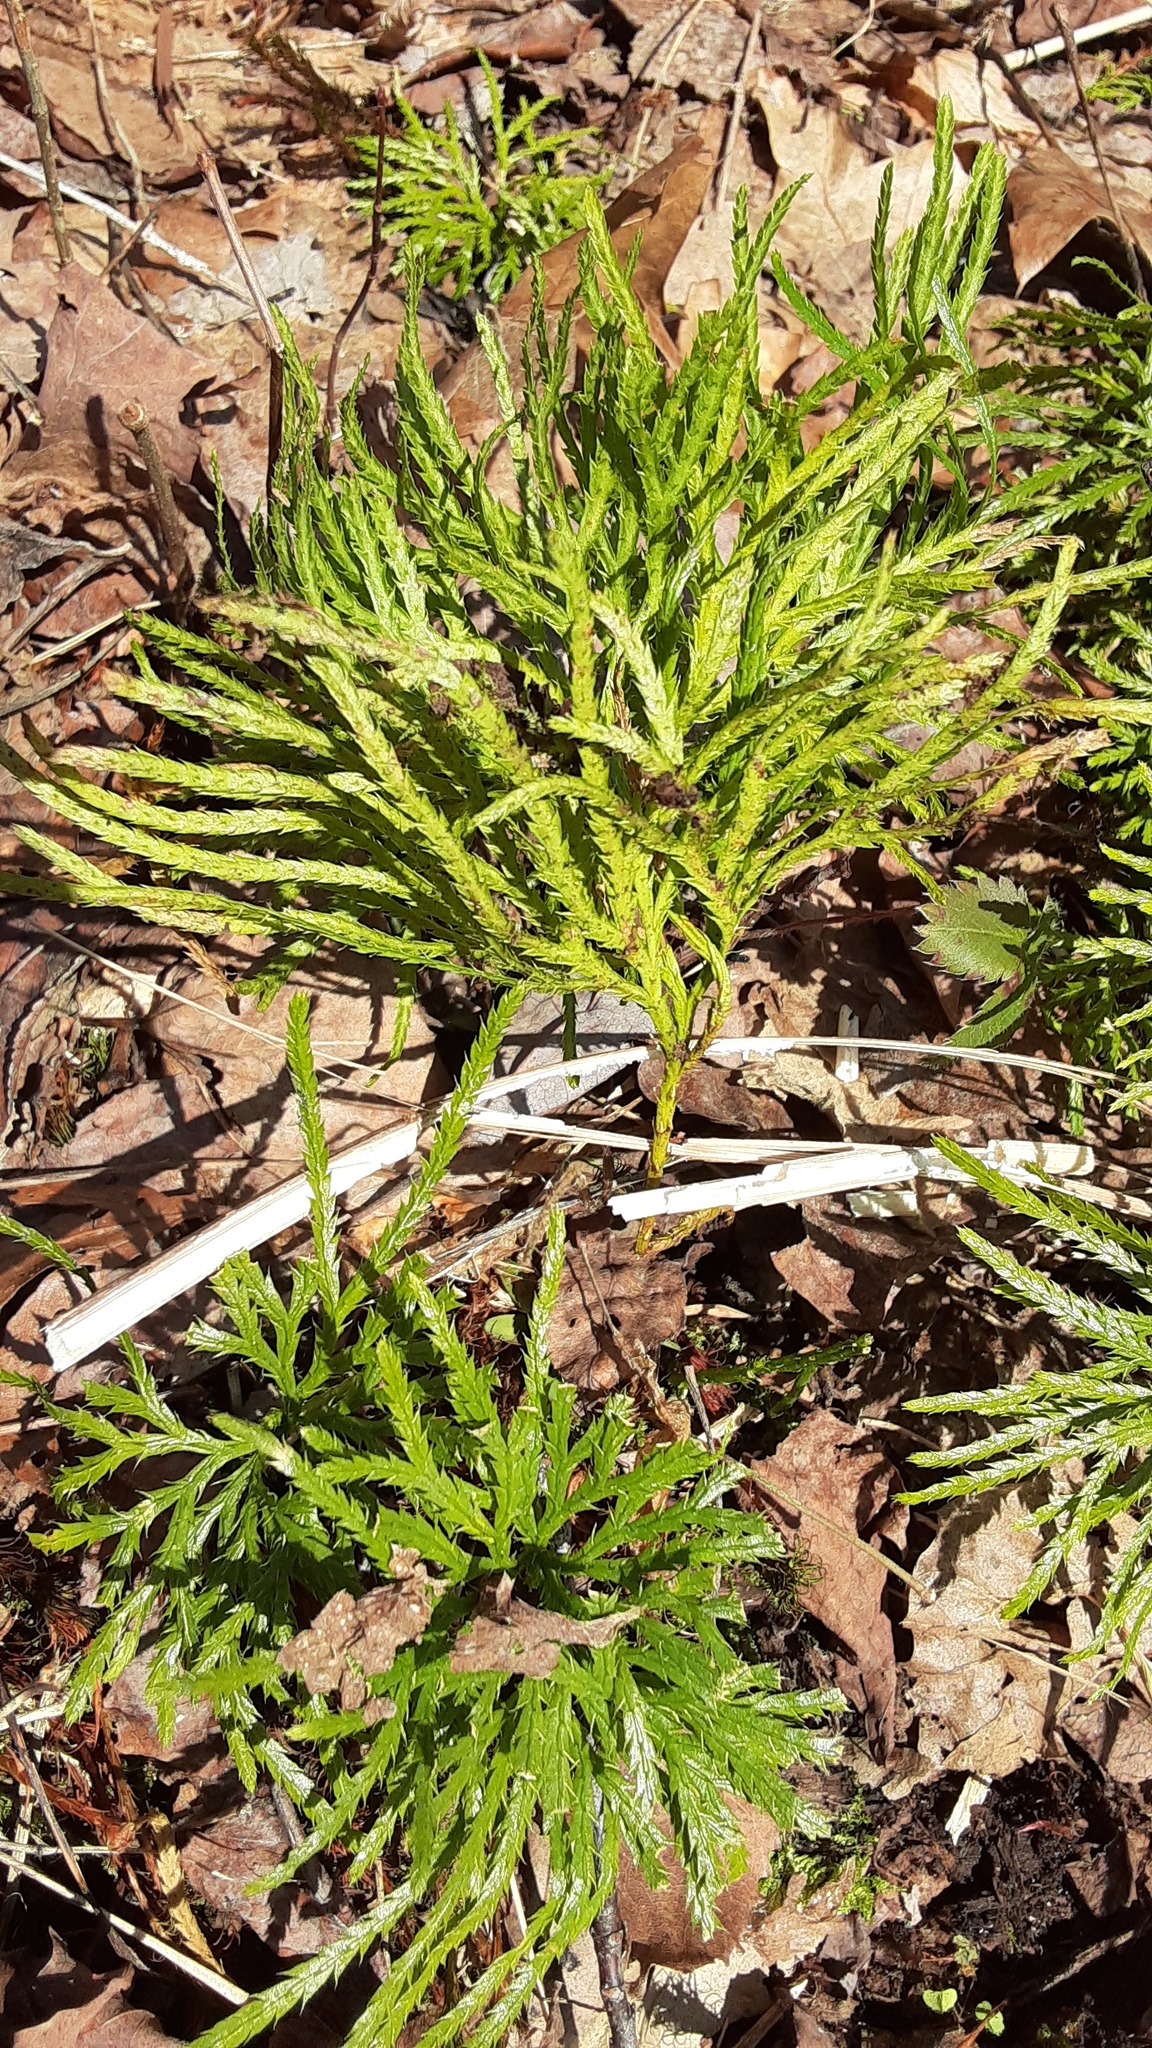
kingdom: Plantae
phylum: Tracheophyta
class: Lycopodiopsida
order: Lycopodiales
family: Lycopodiaceae
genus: Diphasiastrum
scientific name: Diphasiastrum digitatum
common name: Southern running-pine
